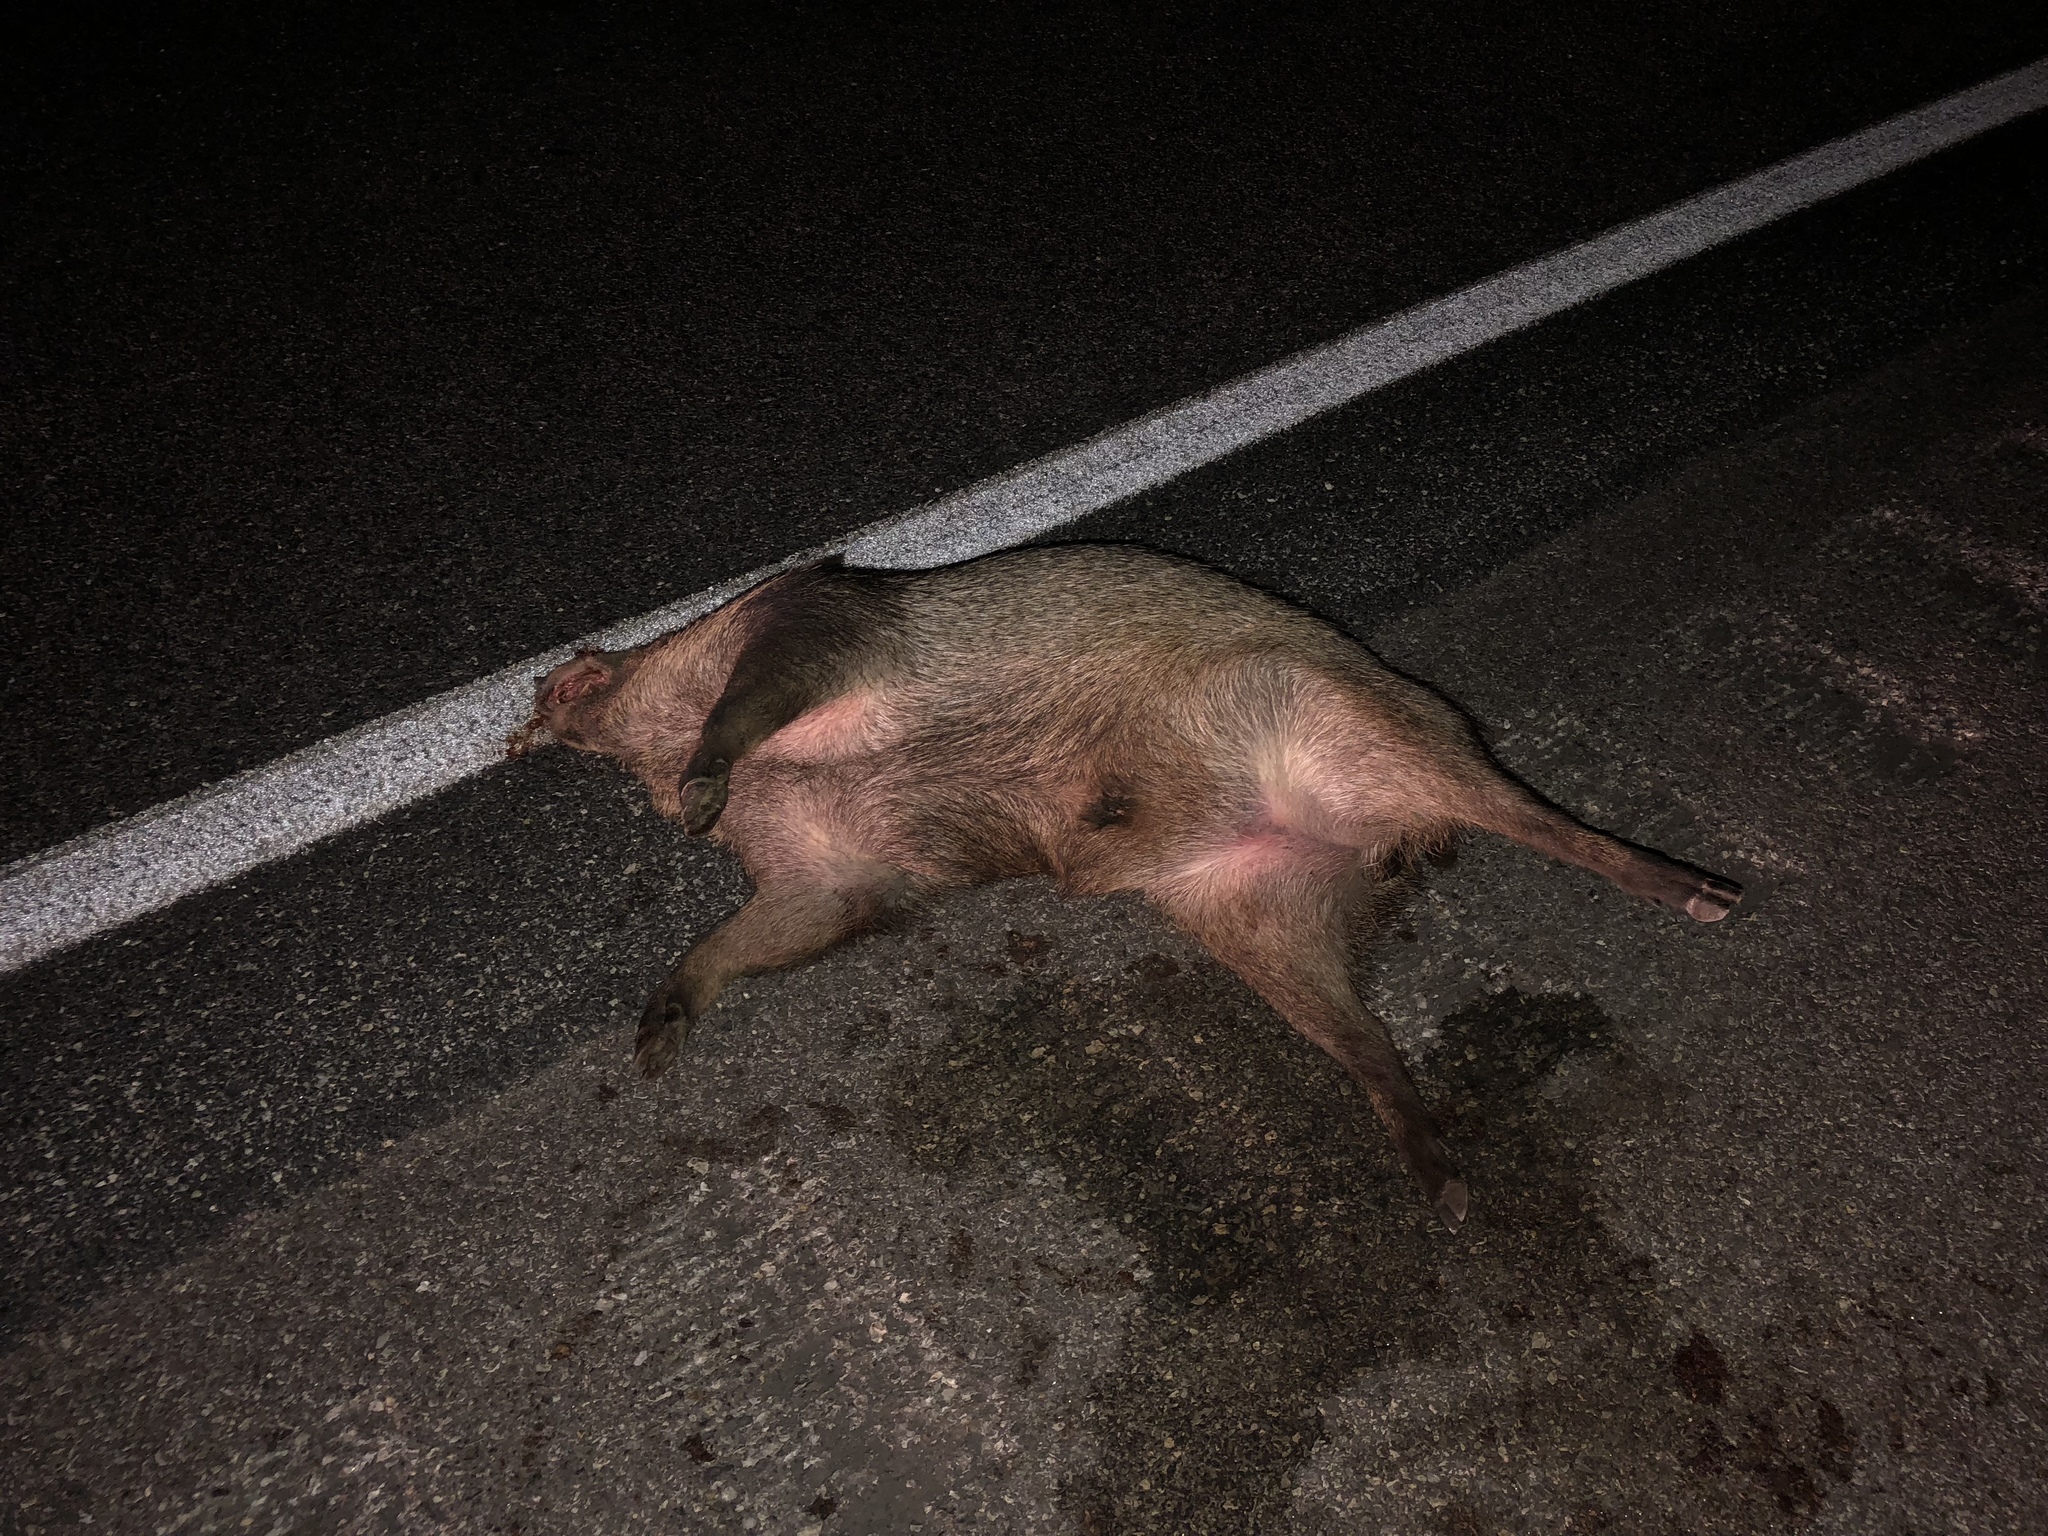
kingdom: Animalia
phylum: Chordata
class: Mammalia
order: Artiodactyla
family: Tayassuidae
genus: Pecari
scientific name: Pecari tajacu
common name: Collared peccary
